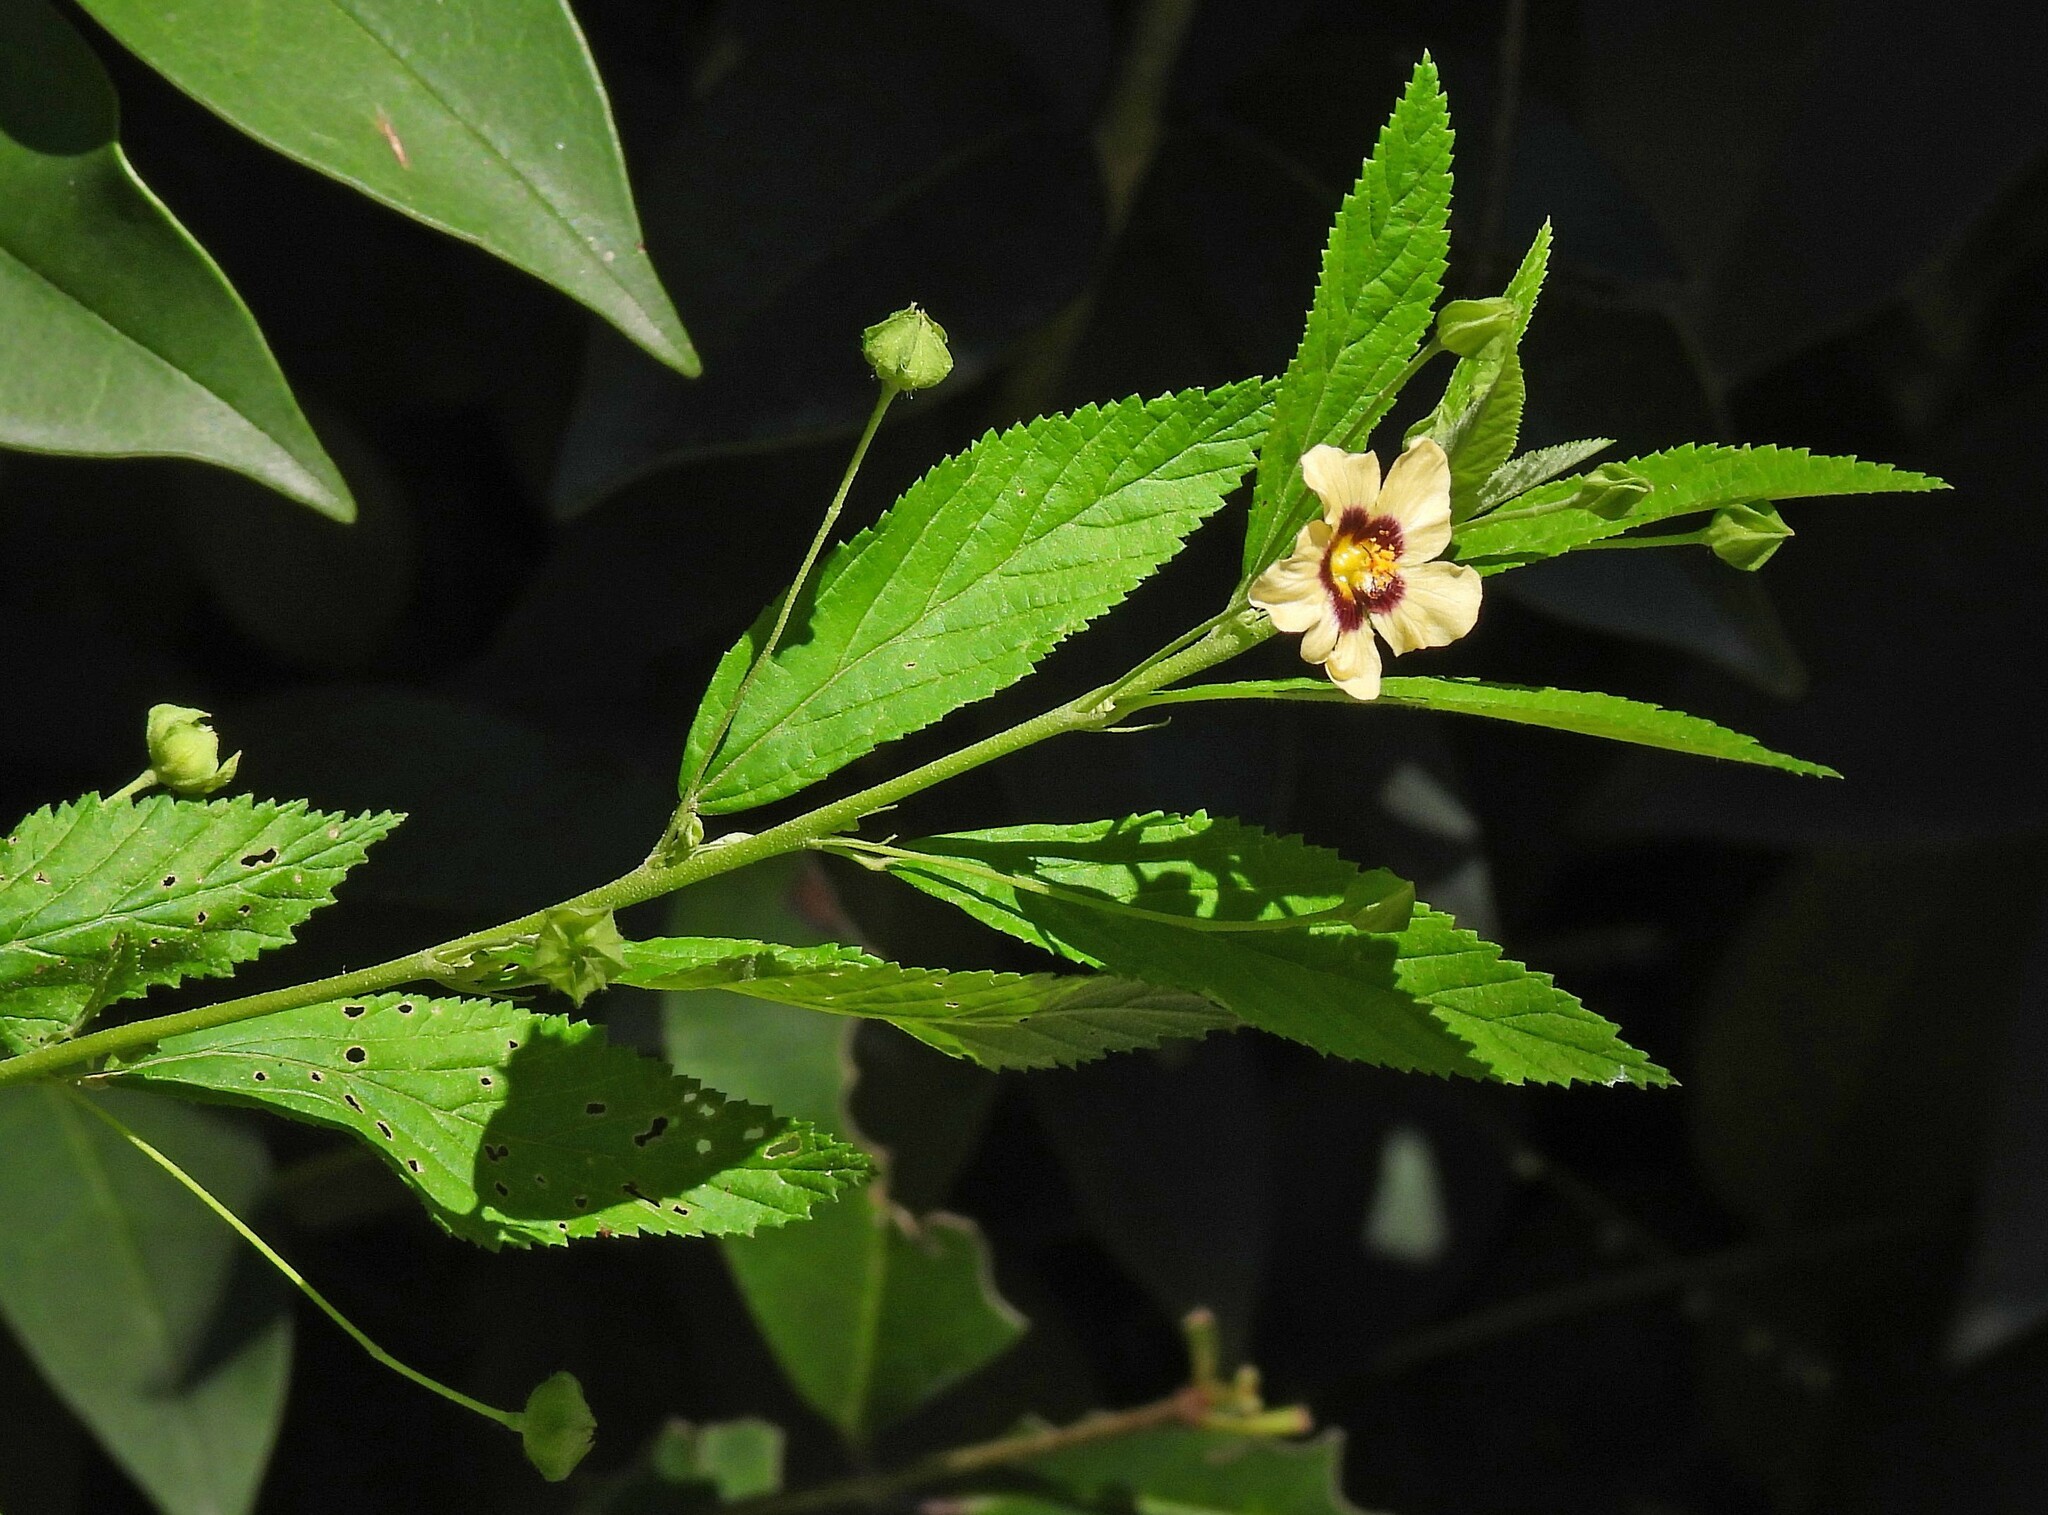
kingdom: Plantae
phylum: Tracheophyta
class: Magnoliopsida
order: Malvales
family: Malvaceae
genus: Sida
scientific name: Sida poeppigiana
